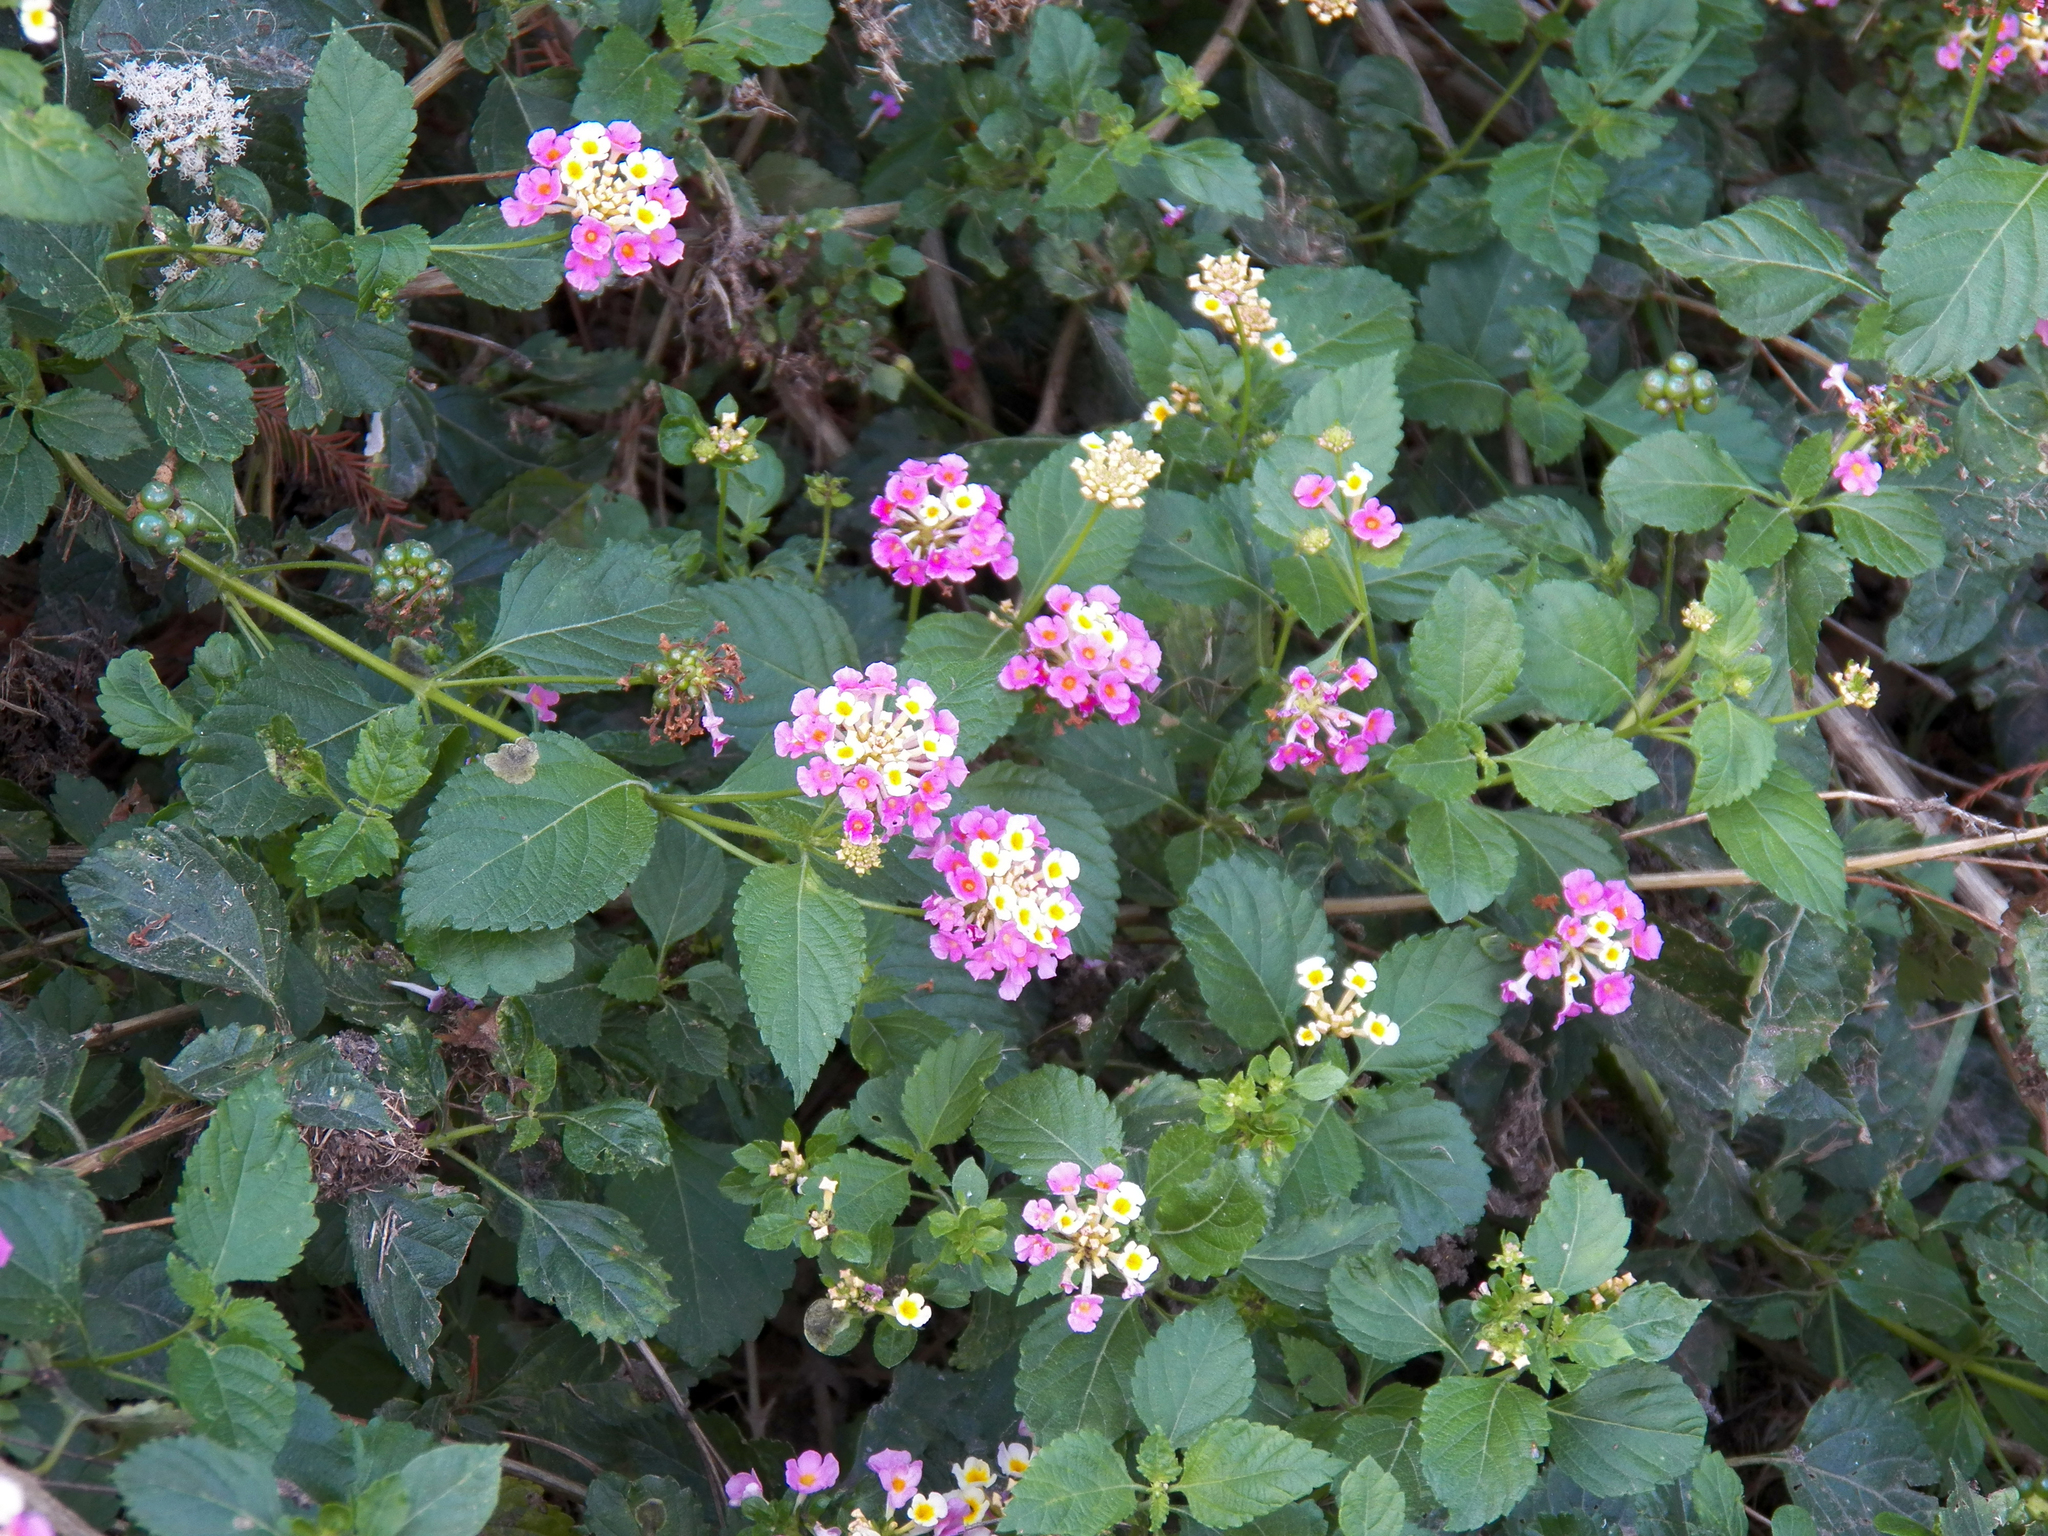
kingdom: Plantae
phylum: Tracheophyta
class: Magnoliopsida
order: Lamiales
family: Verbenaceae
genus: Lantana
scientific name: Lantana strigocamara
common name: Lantana
